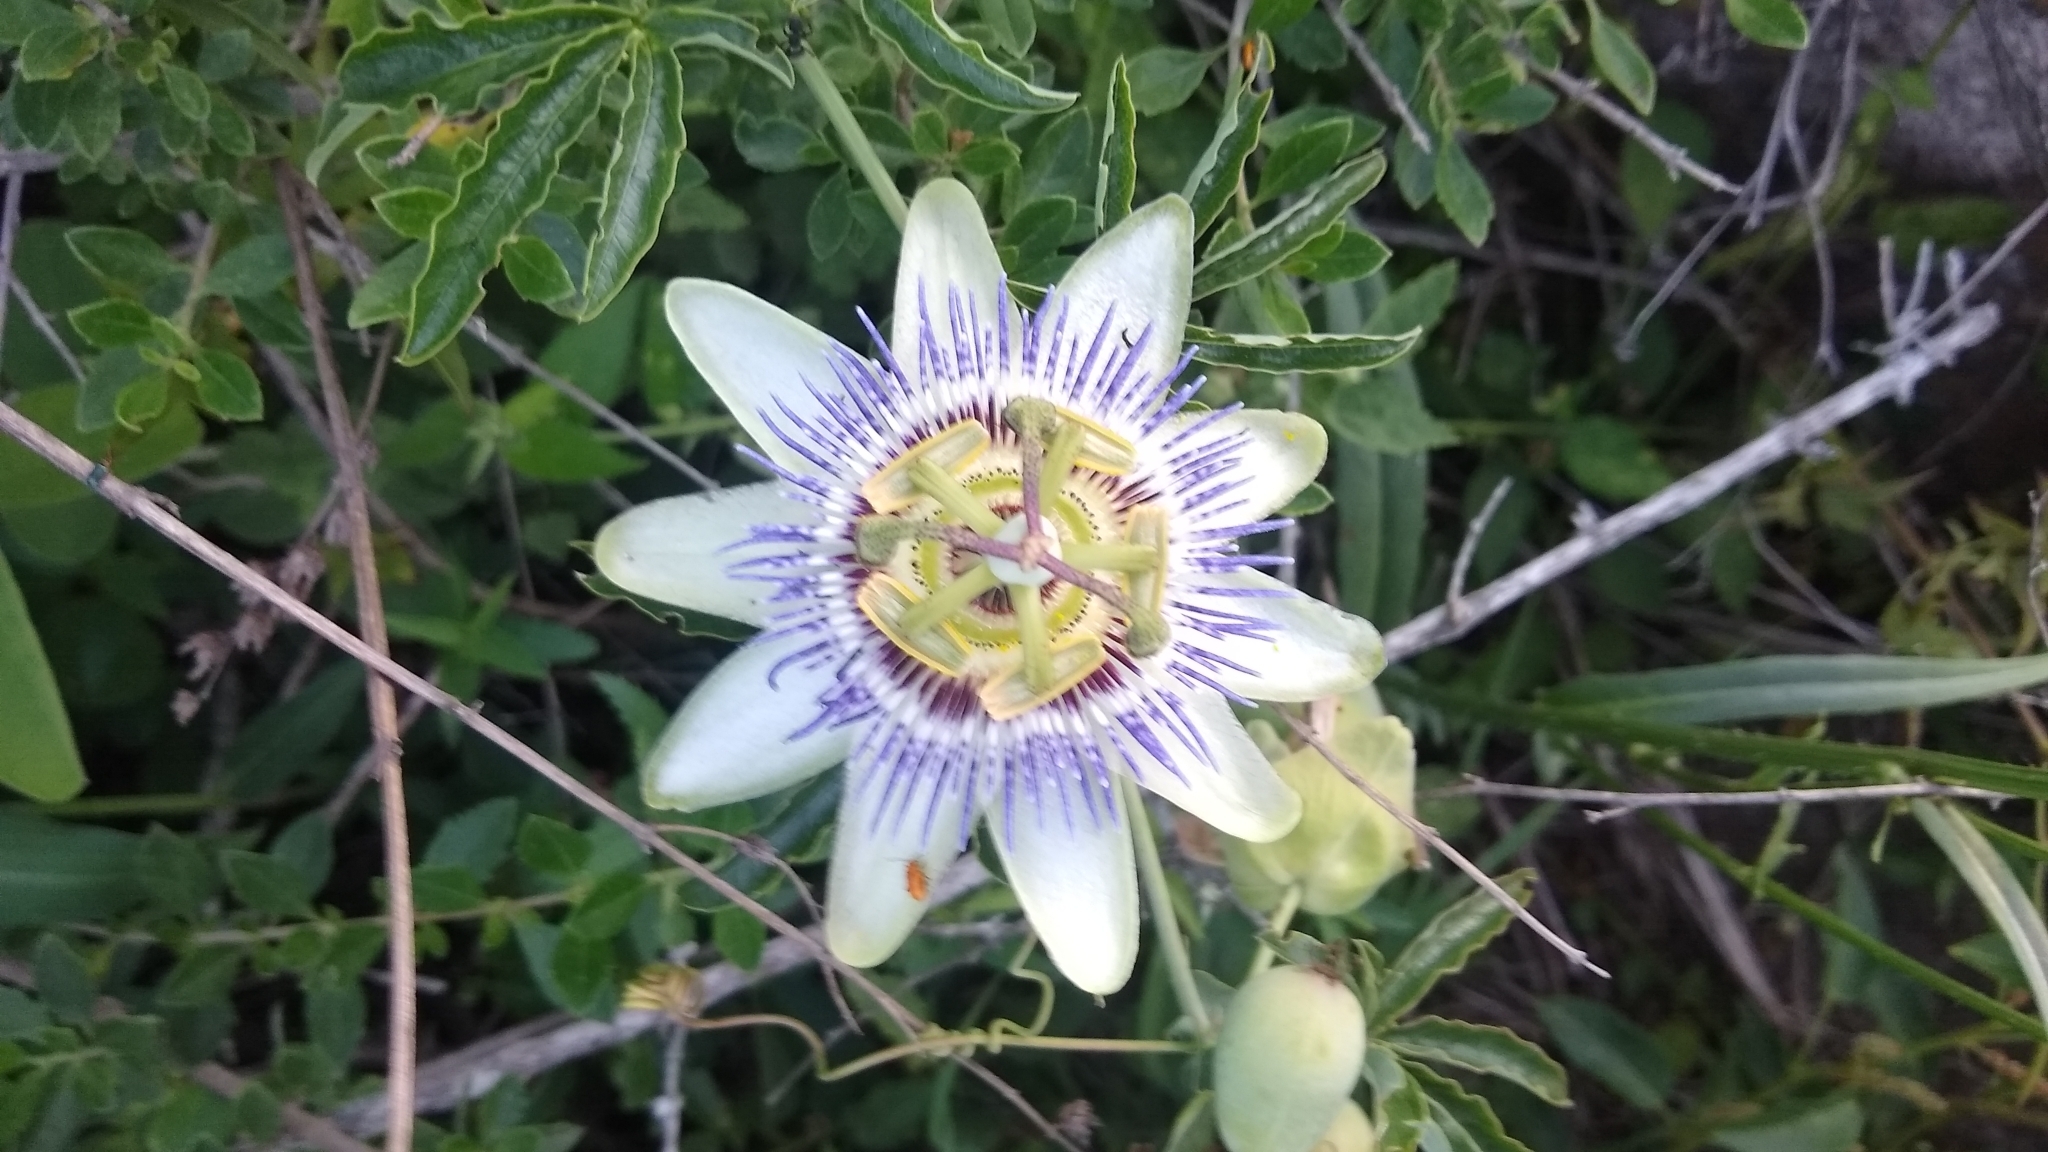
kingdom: Plantae
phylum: Tracheophyta
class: Magnoliopsida
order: Malpighiales
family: Passifloraceae
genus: Passiflora
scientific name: Passiflora caerulea
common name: Blue passionflower
